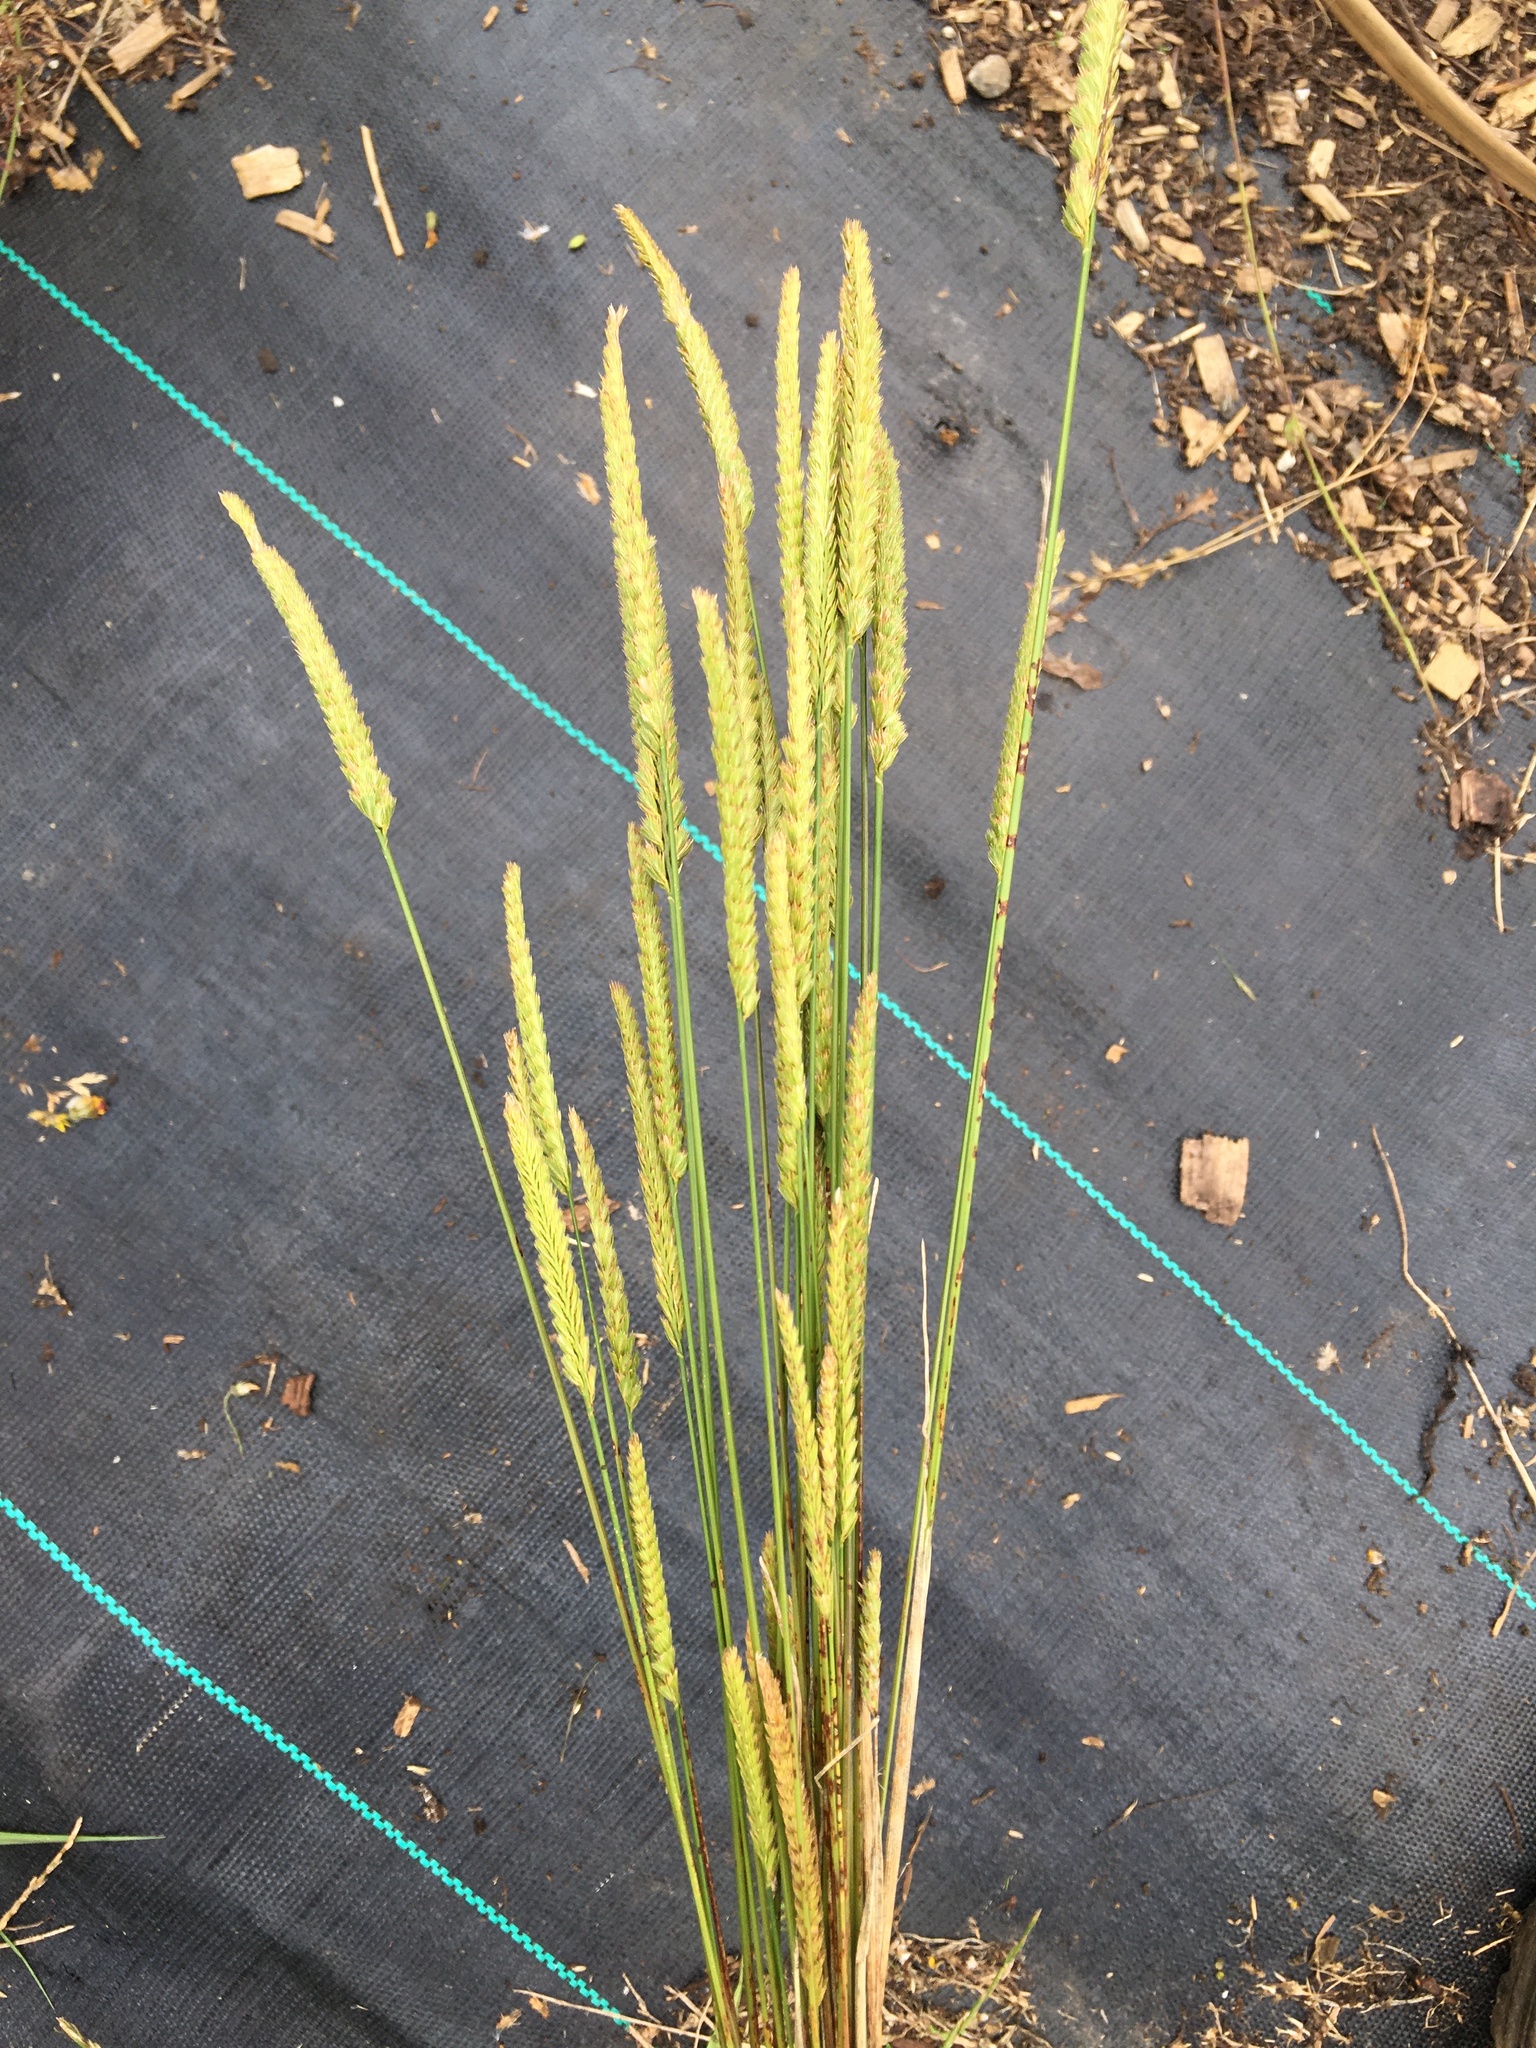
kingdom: Plantae
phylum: Tracheophyta
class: Liliopsida
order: Poales
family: Poaceae
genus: Cynosurus
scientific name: Cynosurus cristatus
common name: Crested dog's-tail
